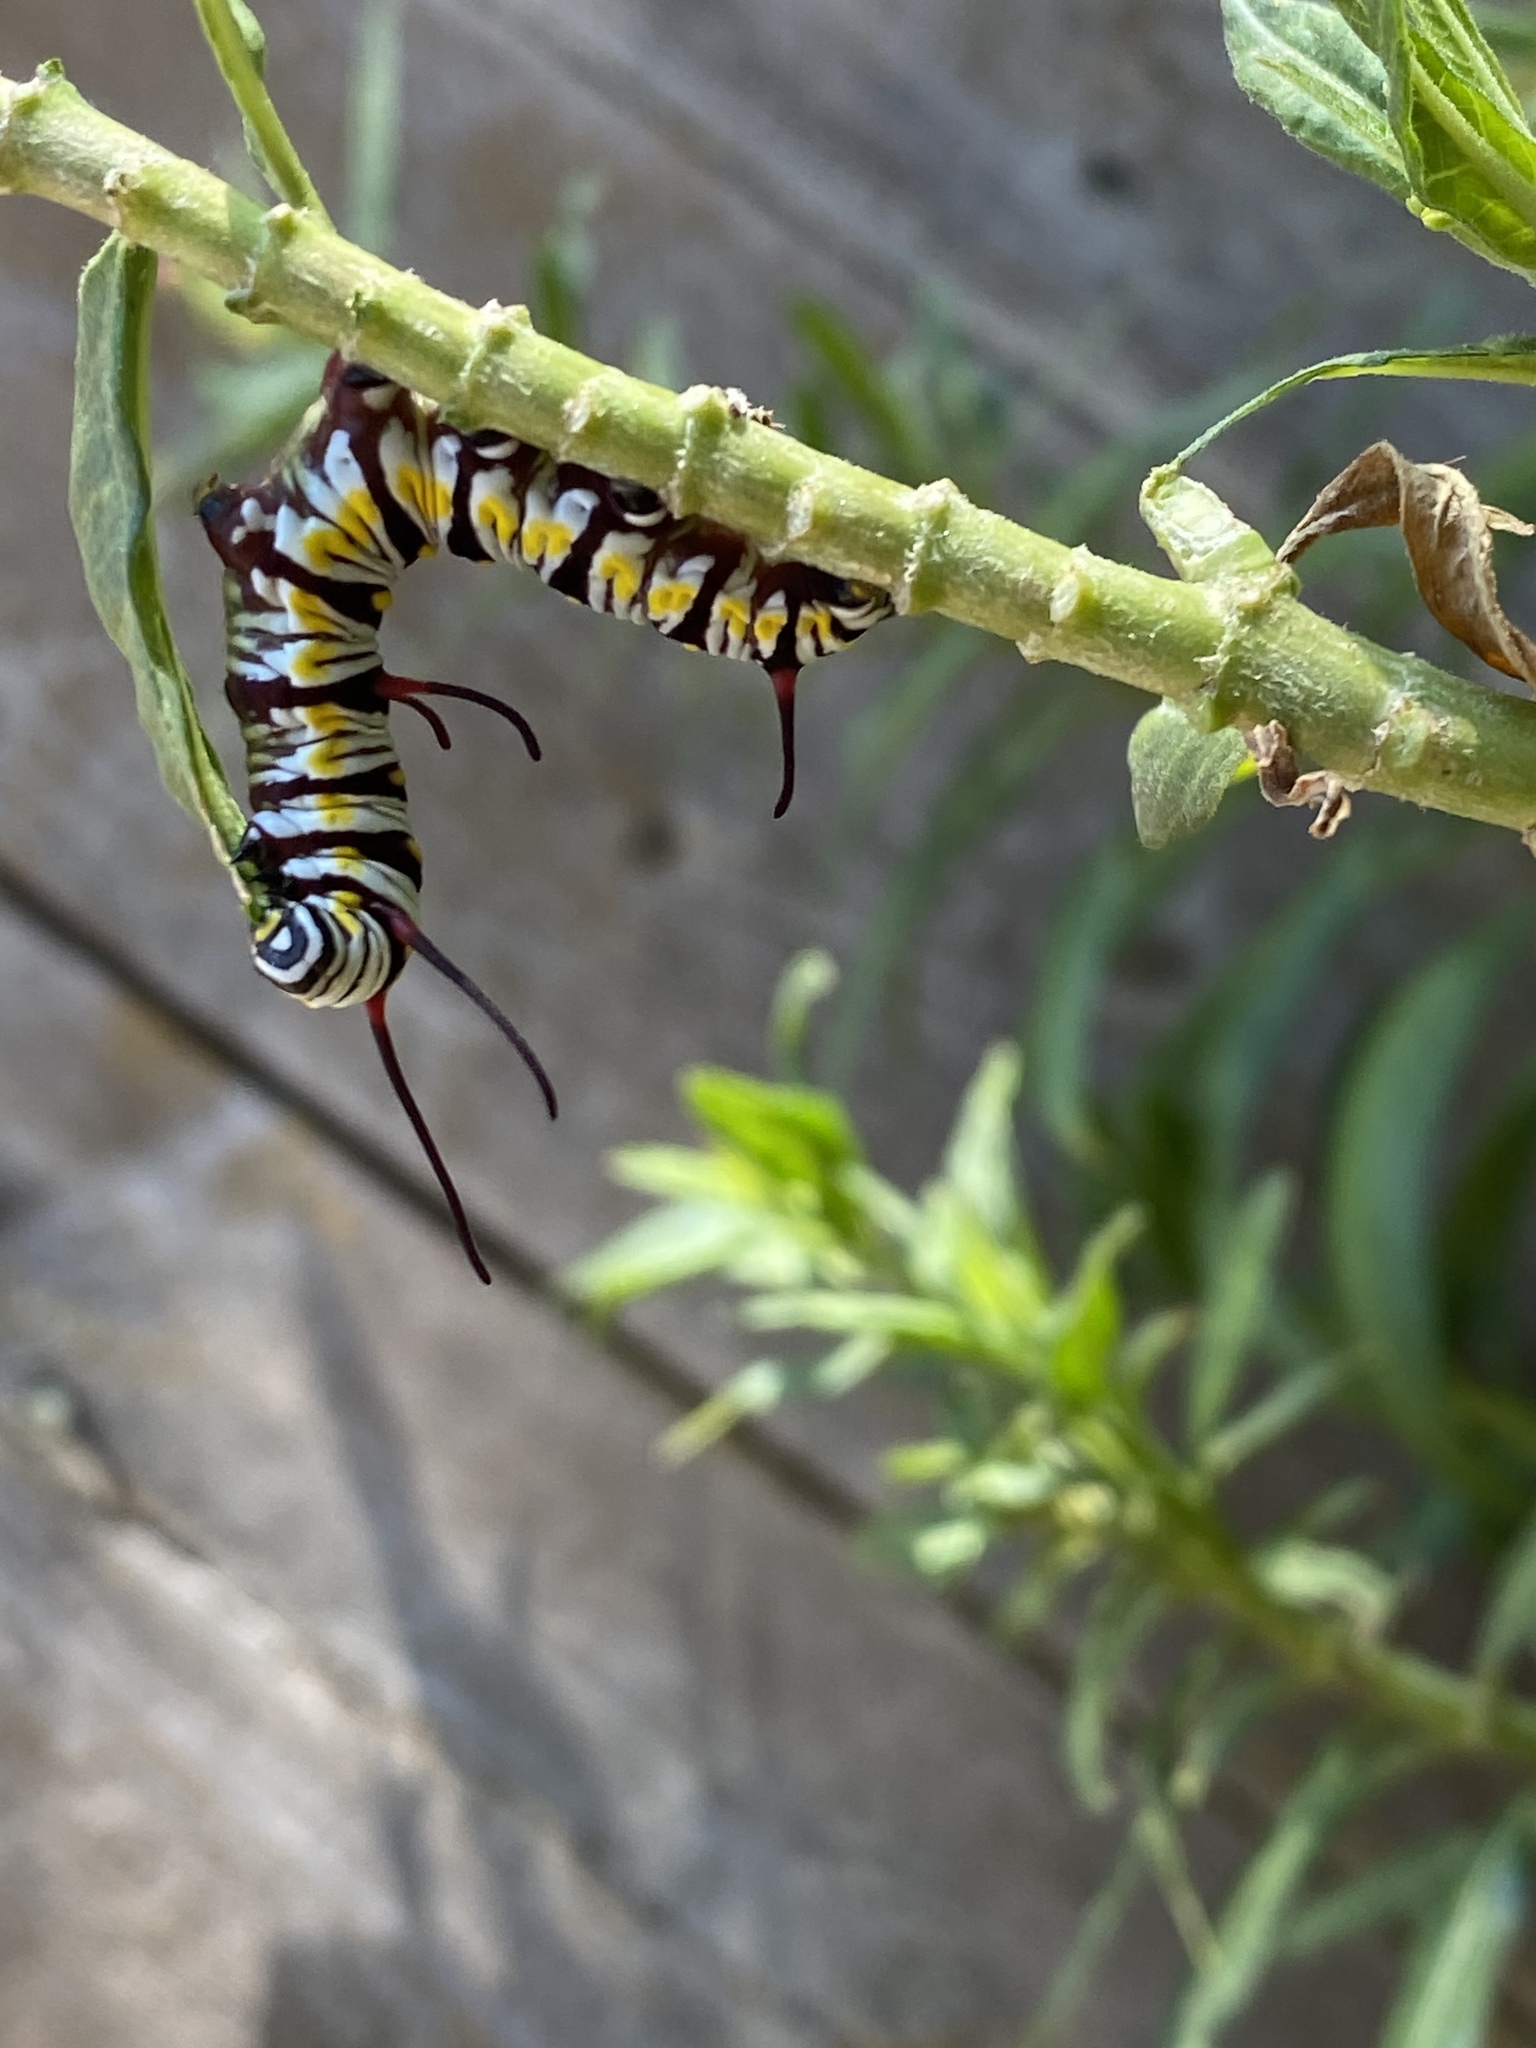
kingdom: Animalia
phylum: Arthropoda
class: Insecta
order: Lepidoptera
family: Nymphalidae
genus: Danaus
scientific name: Danaus plexippus
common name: Monarch
